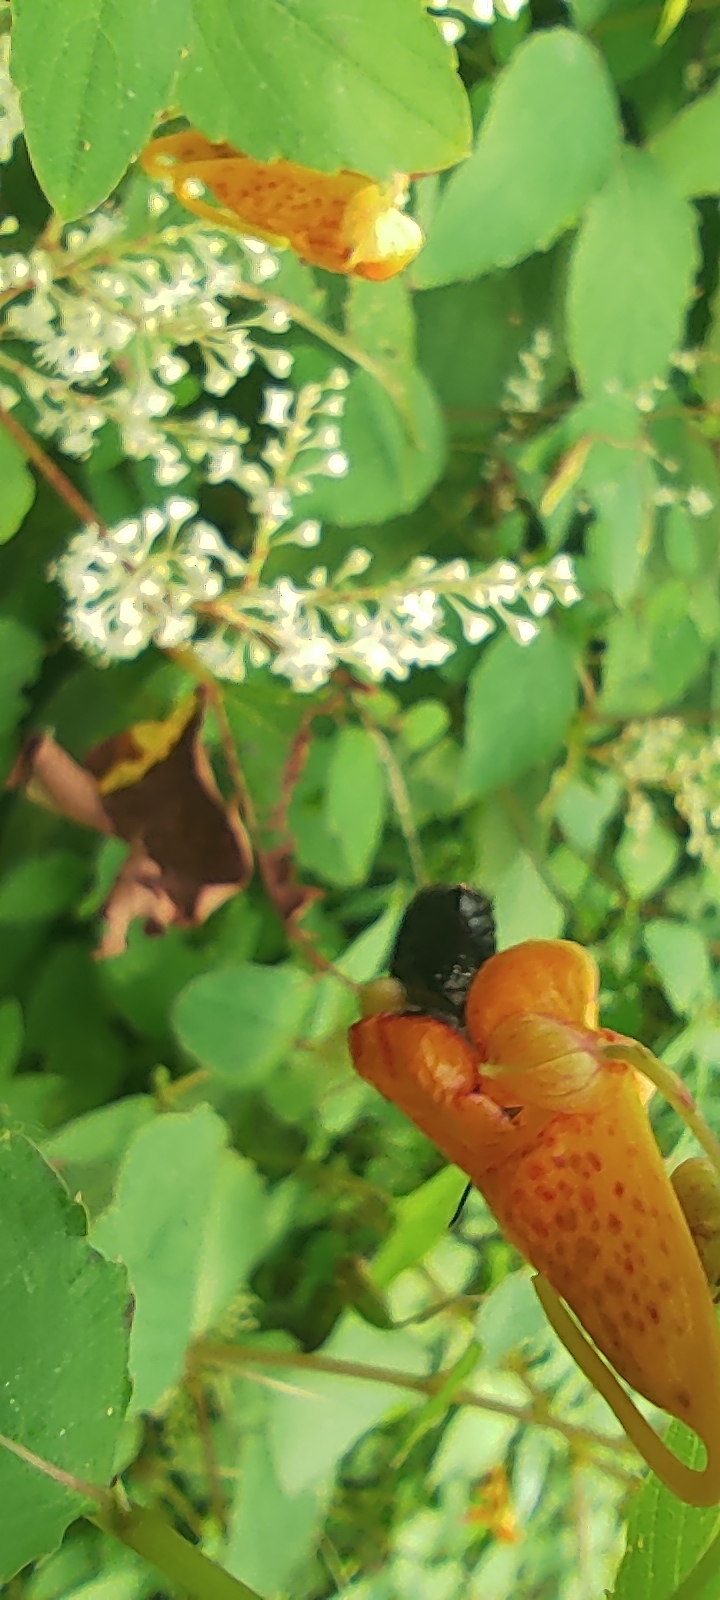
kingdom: Animalia
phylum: Arthropoda
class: Insecta
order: Hymenoptera
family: Apidae
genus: Bombus
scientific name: Bombus
